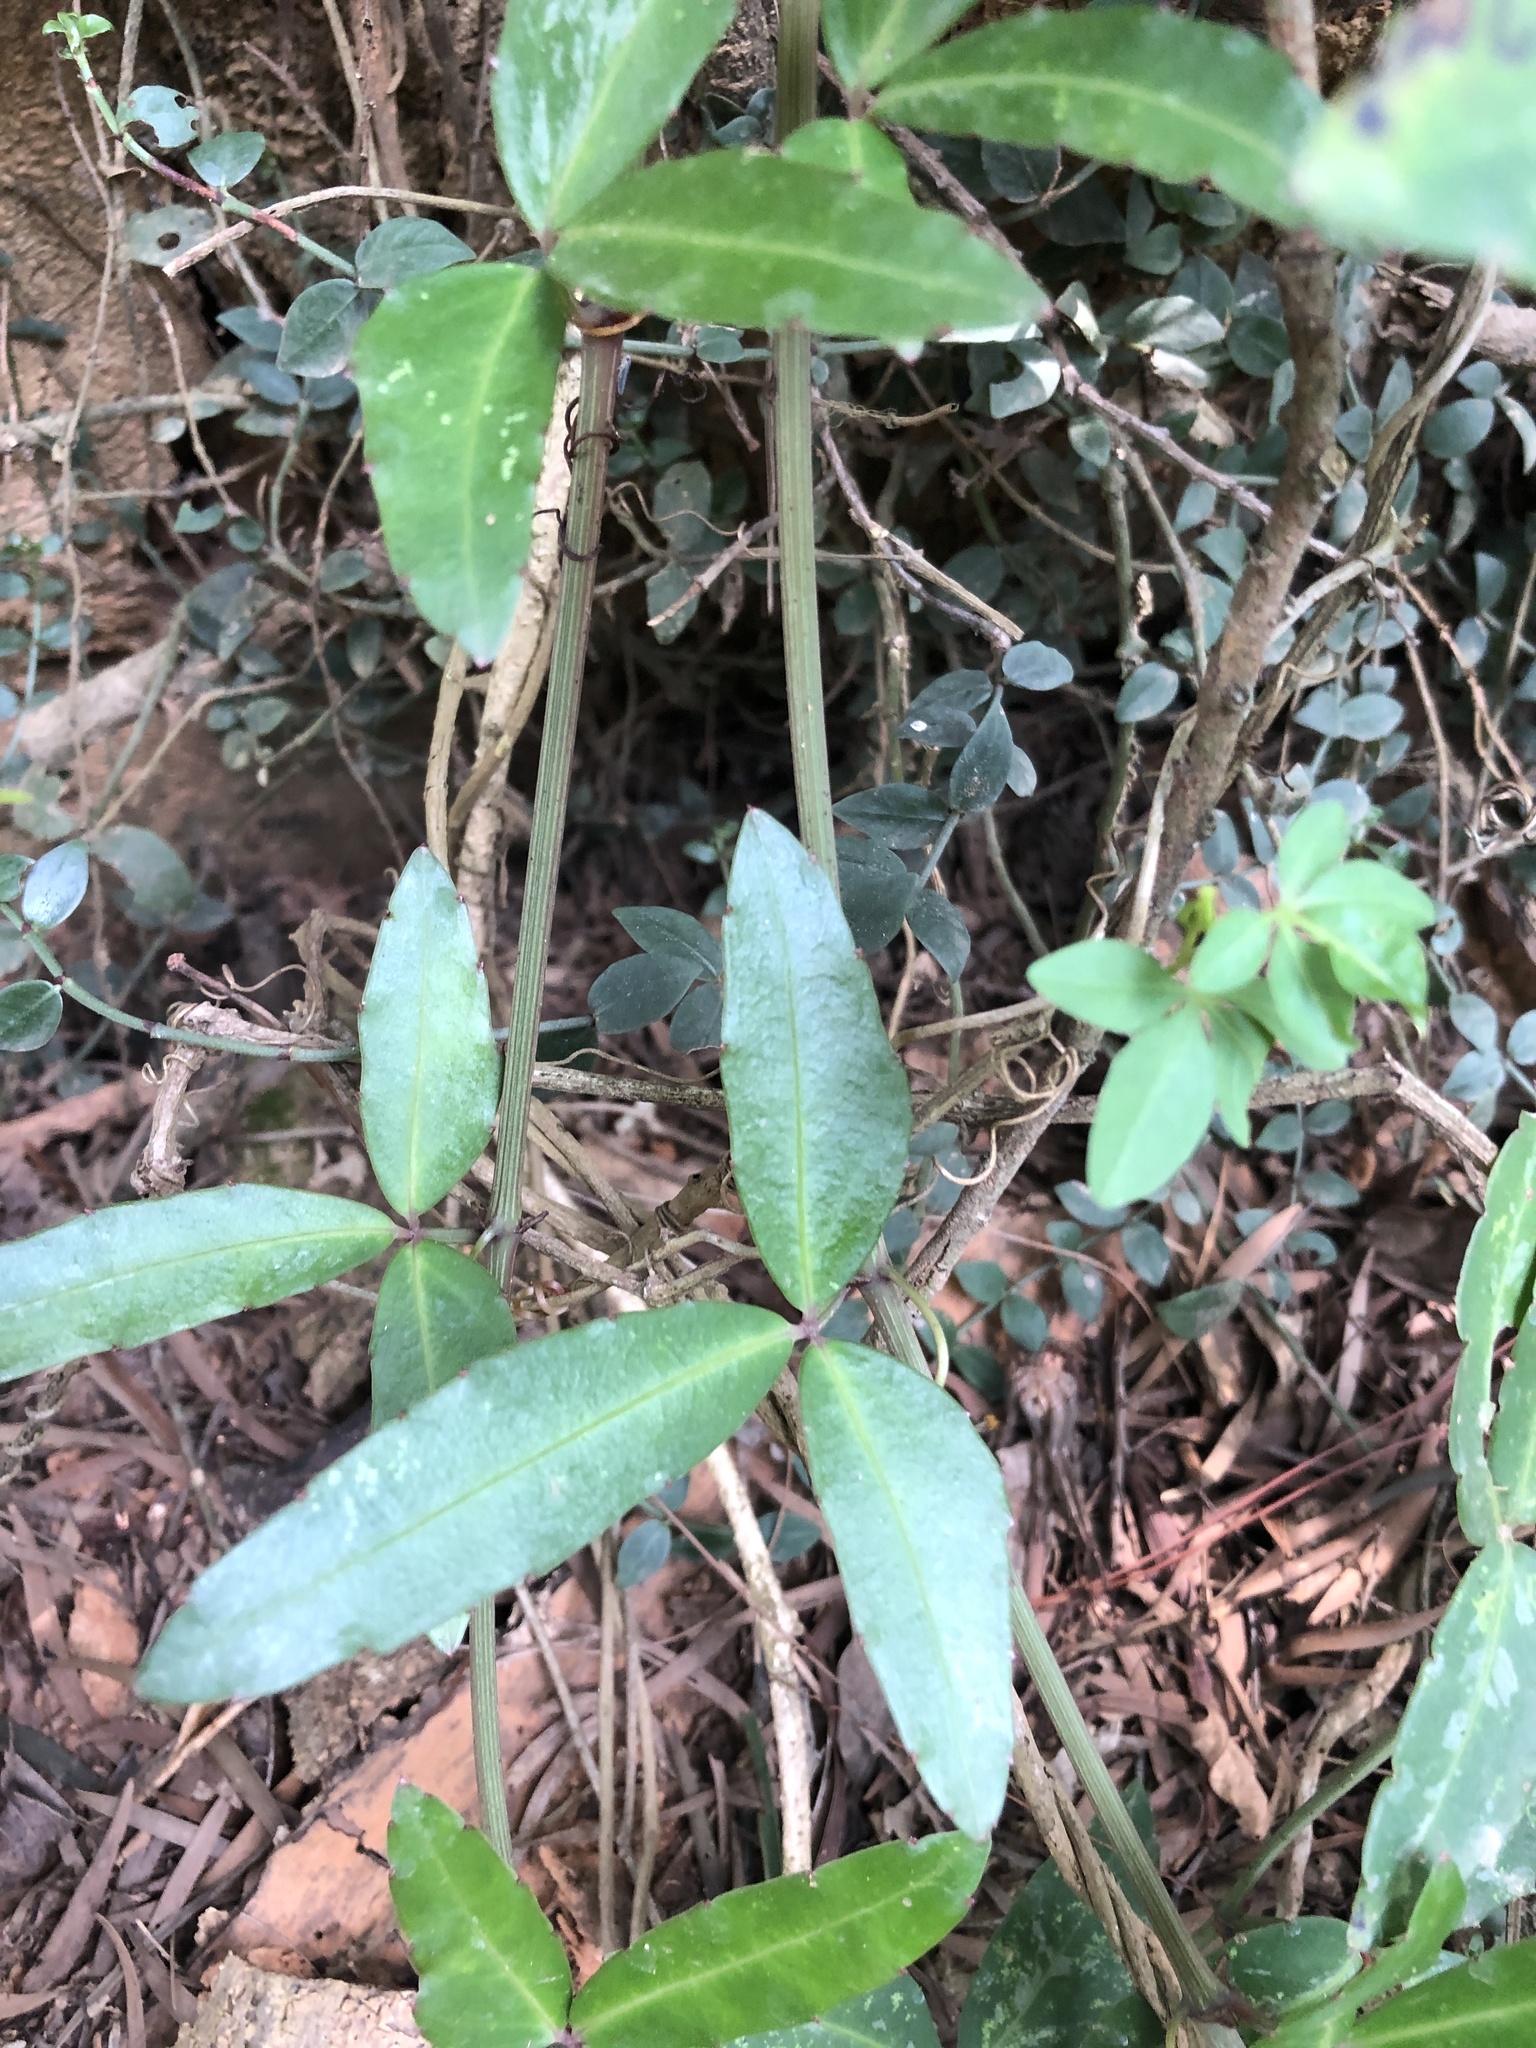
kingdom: Plantae
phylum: Tracheophyta
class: Magnoliopsida
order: Vitales
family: Vitaceae
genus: Tetrastigma
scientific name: Tetrastigma formosanum
